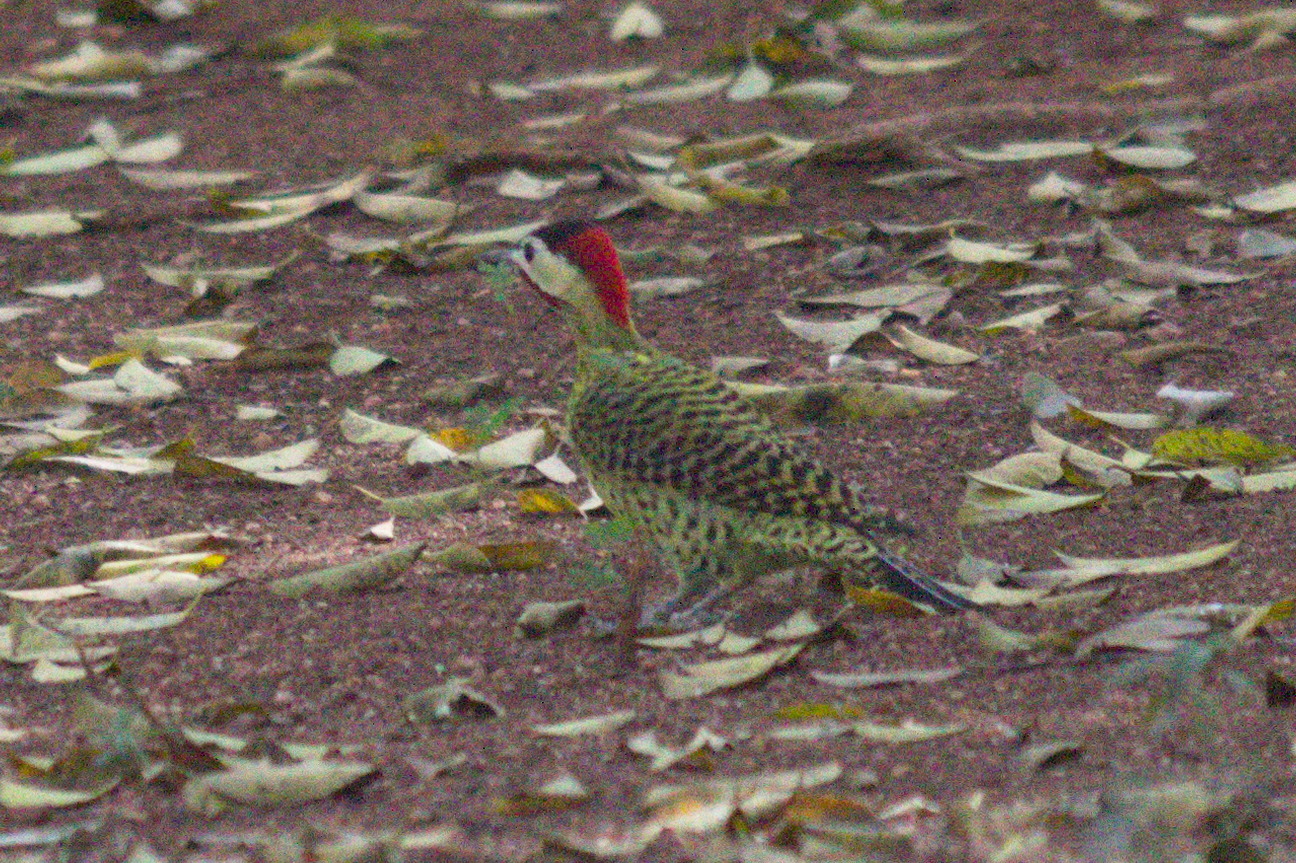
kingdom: Animalia
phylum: Chordata
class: Aves
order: Piciformes
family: Picidae
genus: Colaptes
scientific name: Colaptes melanochloros
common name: Green-barred woodpecker
